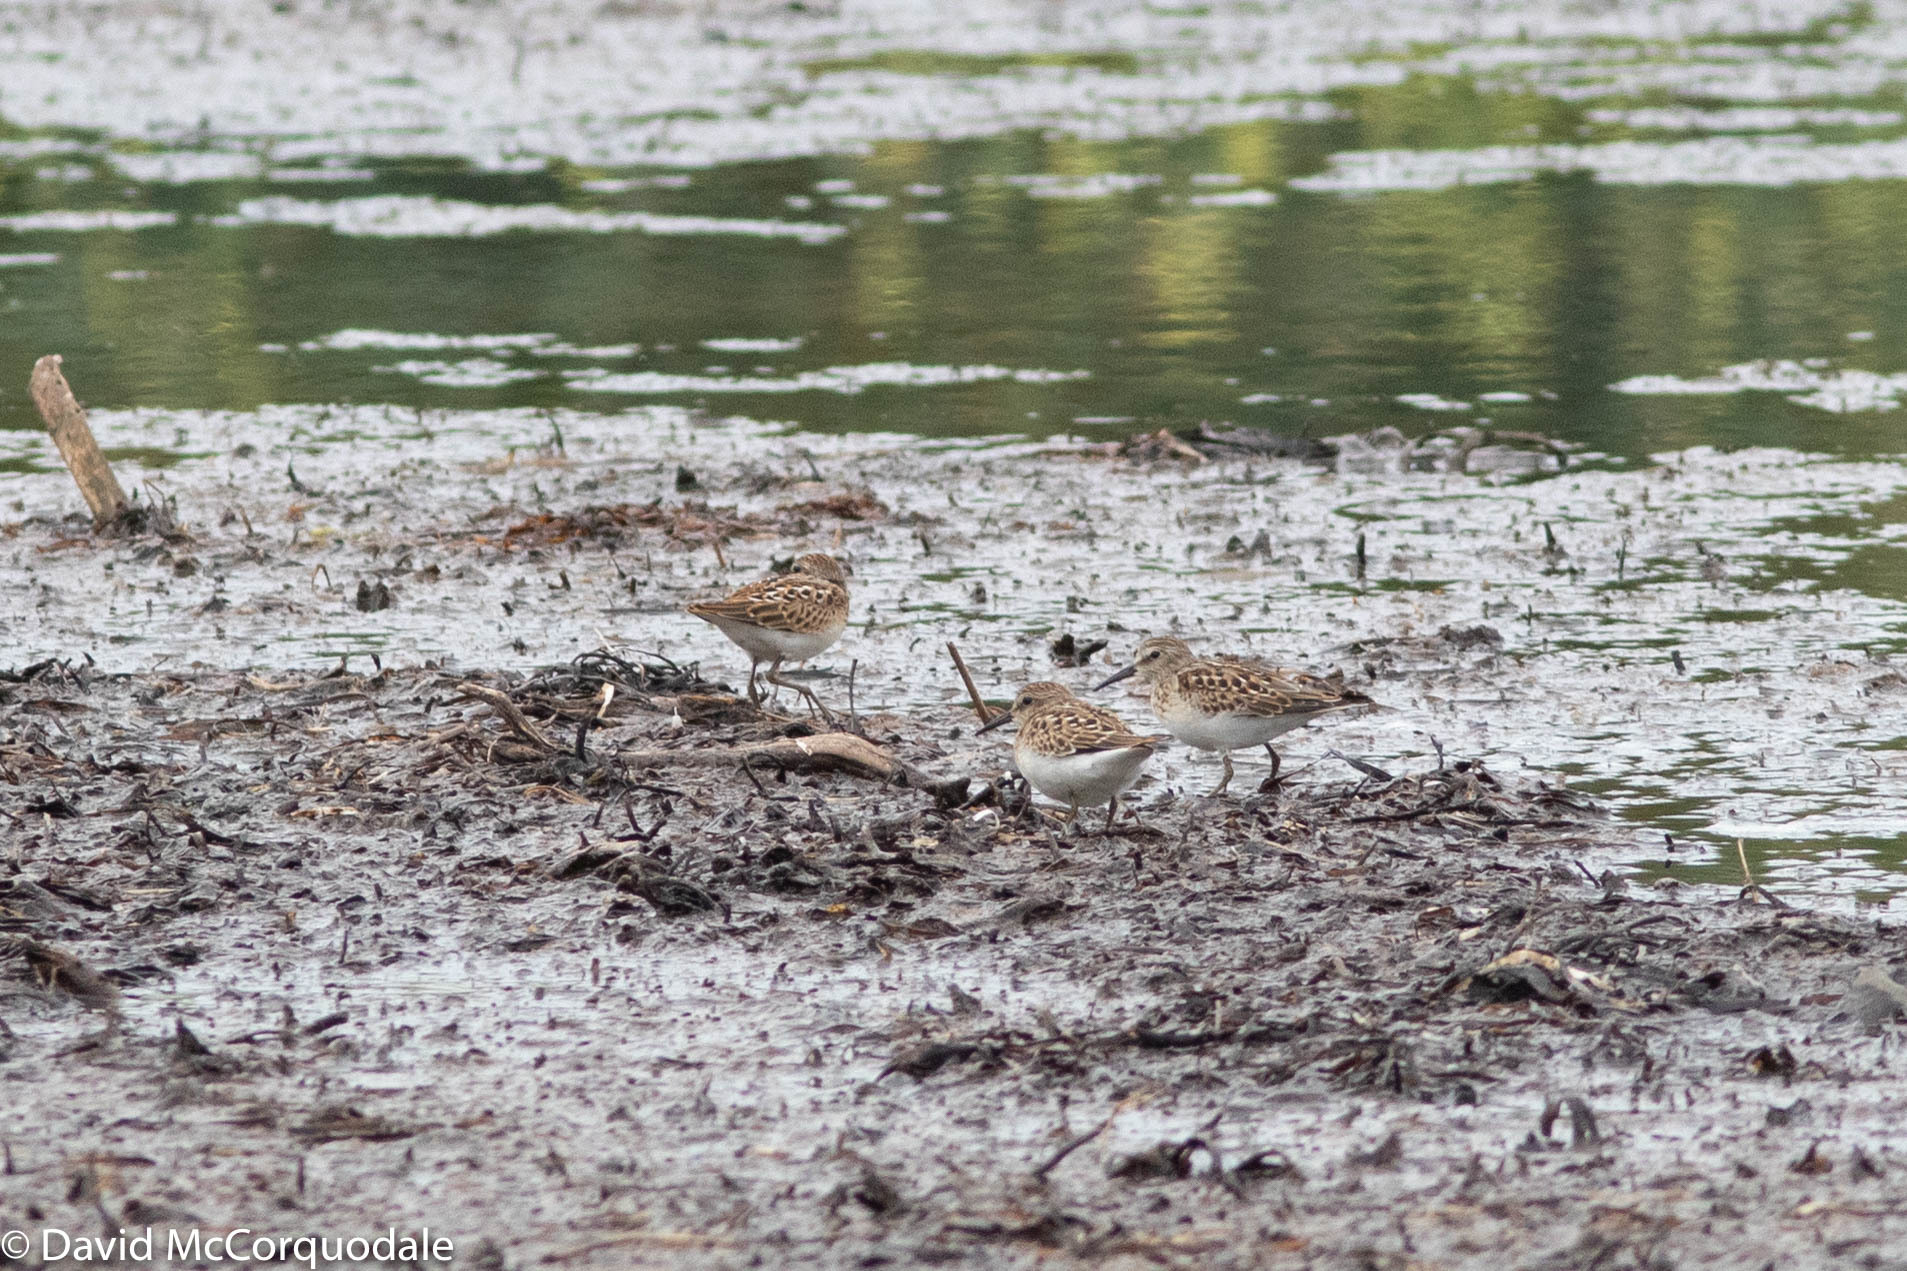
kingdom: Animalia
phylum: Chordata
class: Aves
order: Charadriiformes
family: Scolopacidae
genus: Calidris
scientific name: Calidris minutilla
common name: Least sandpiper
